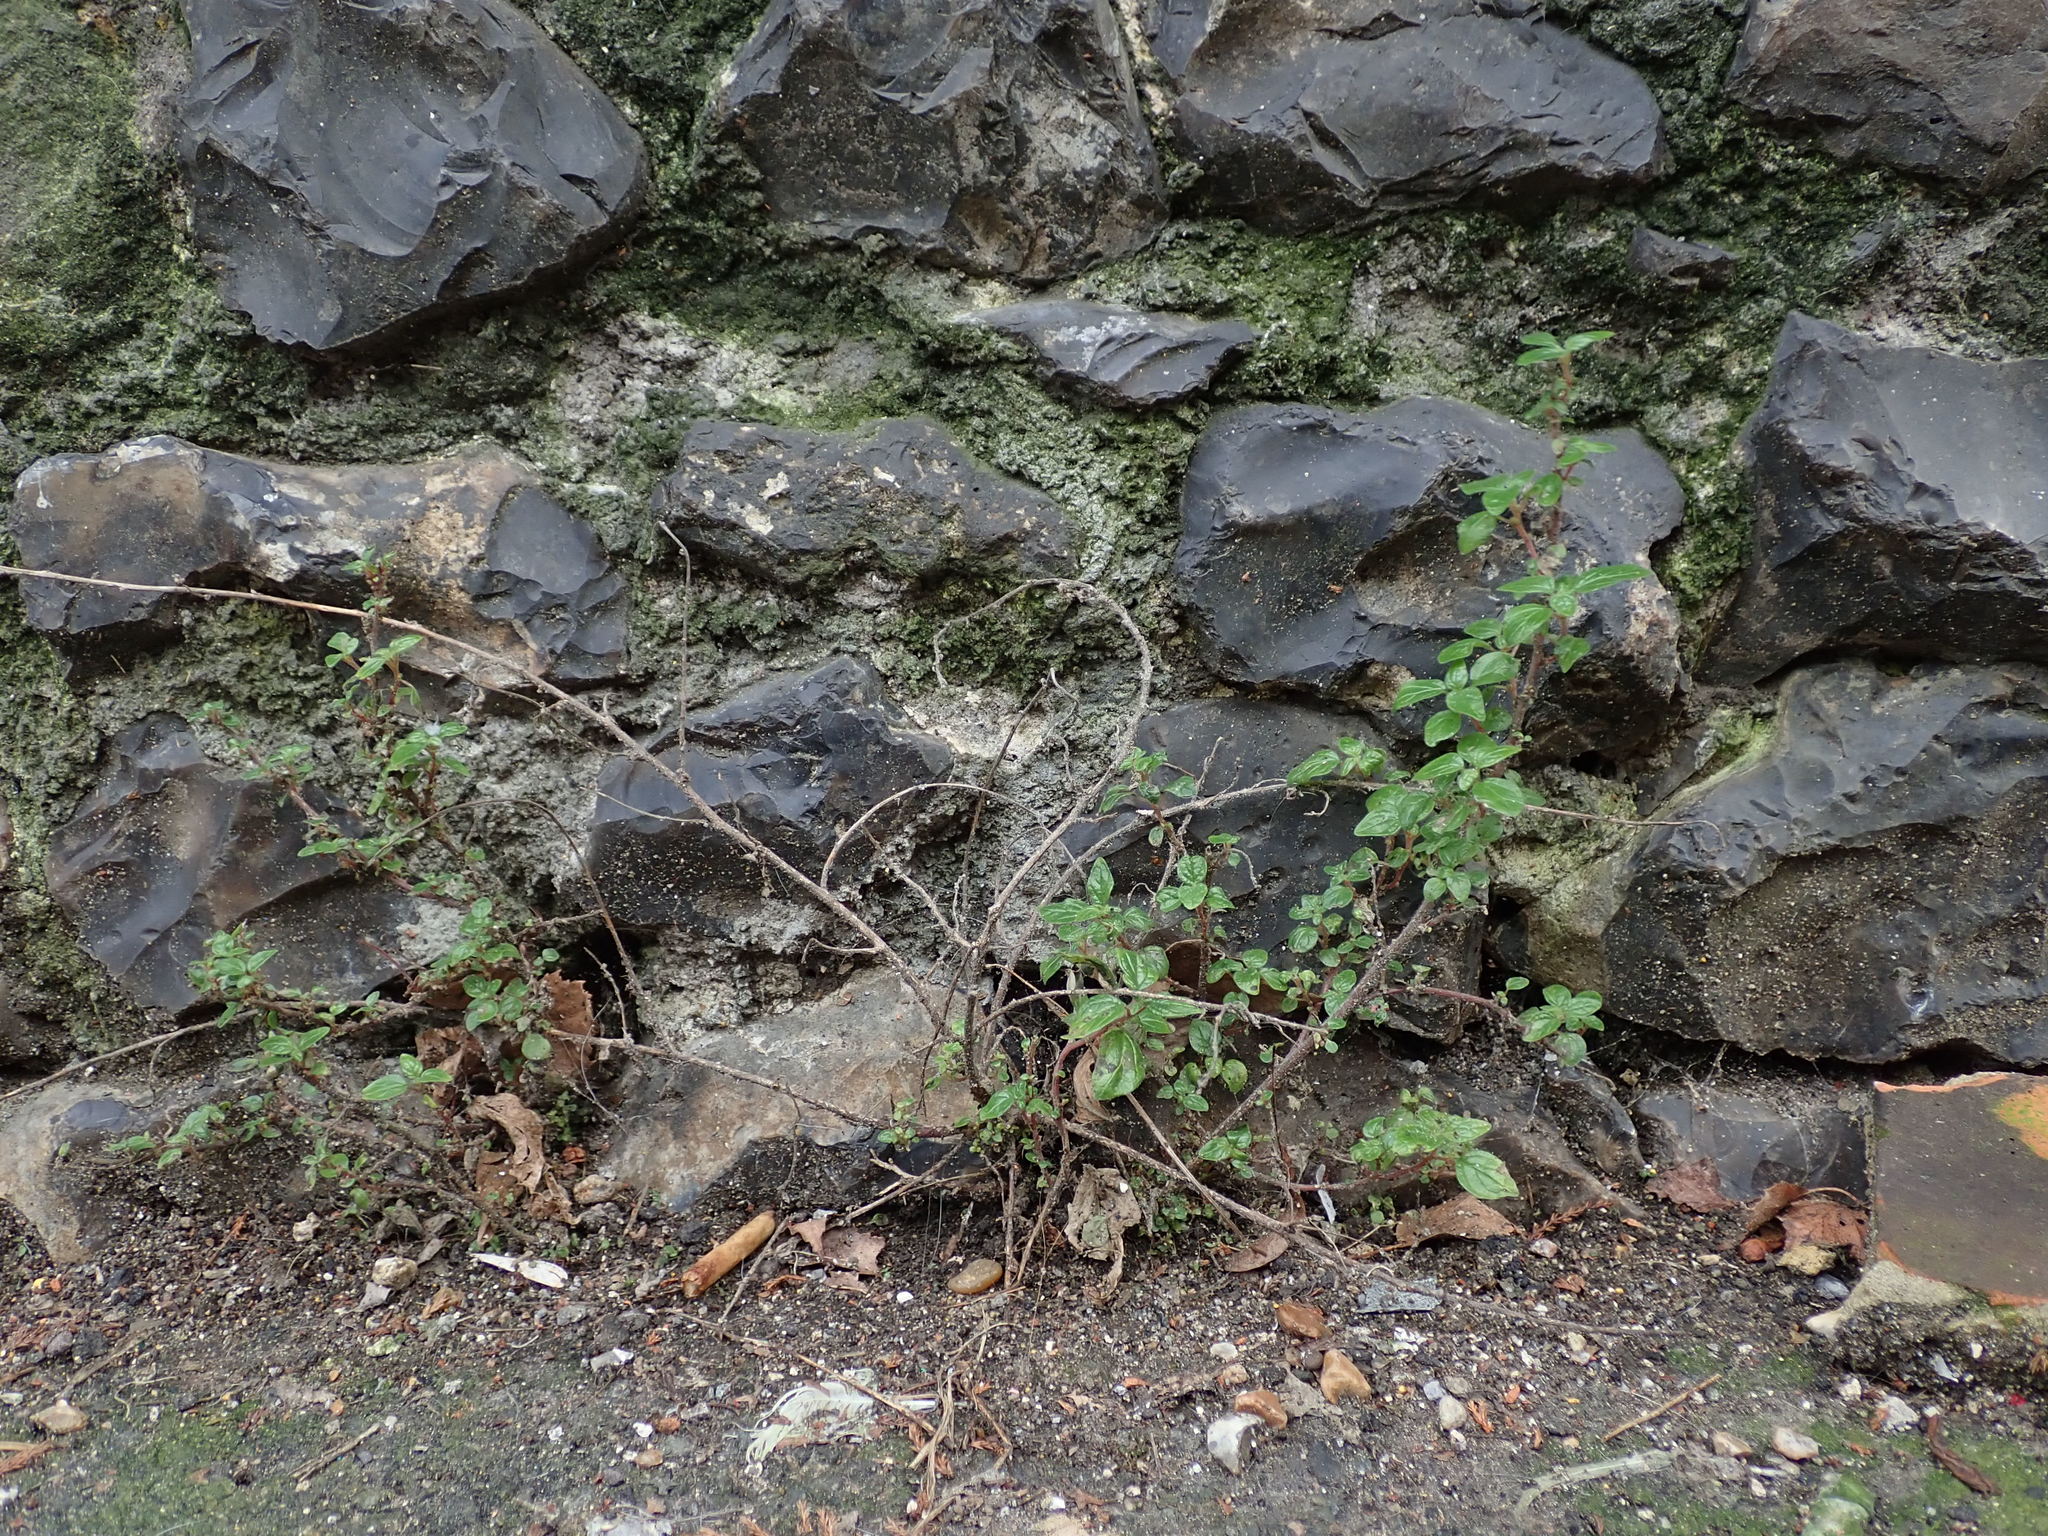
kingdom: Plantae
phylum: Tracheophyta
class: Magnoliopsida
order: Rosales
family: Urticaceae
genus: Parietaria
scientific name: Parietaria judaica
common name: Pellitory-of-the-wall
